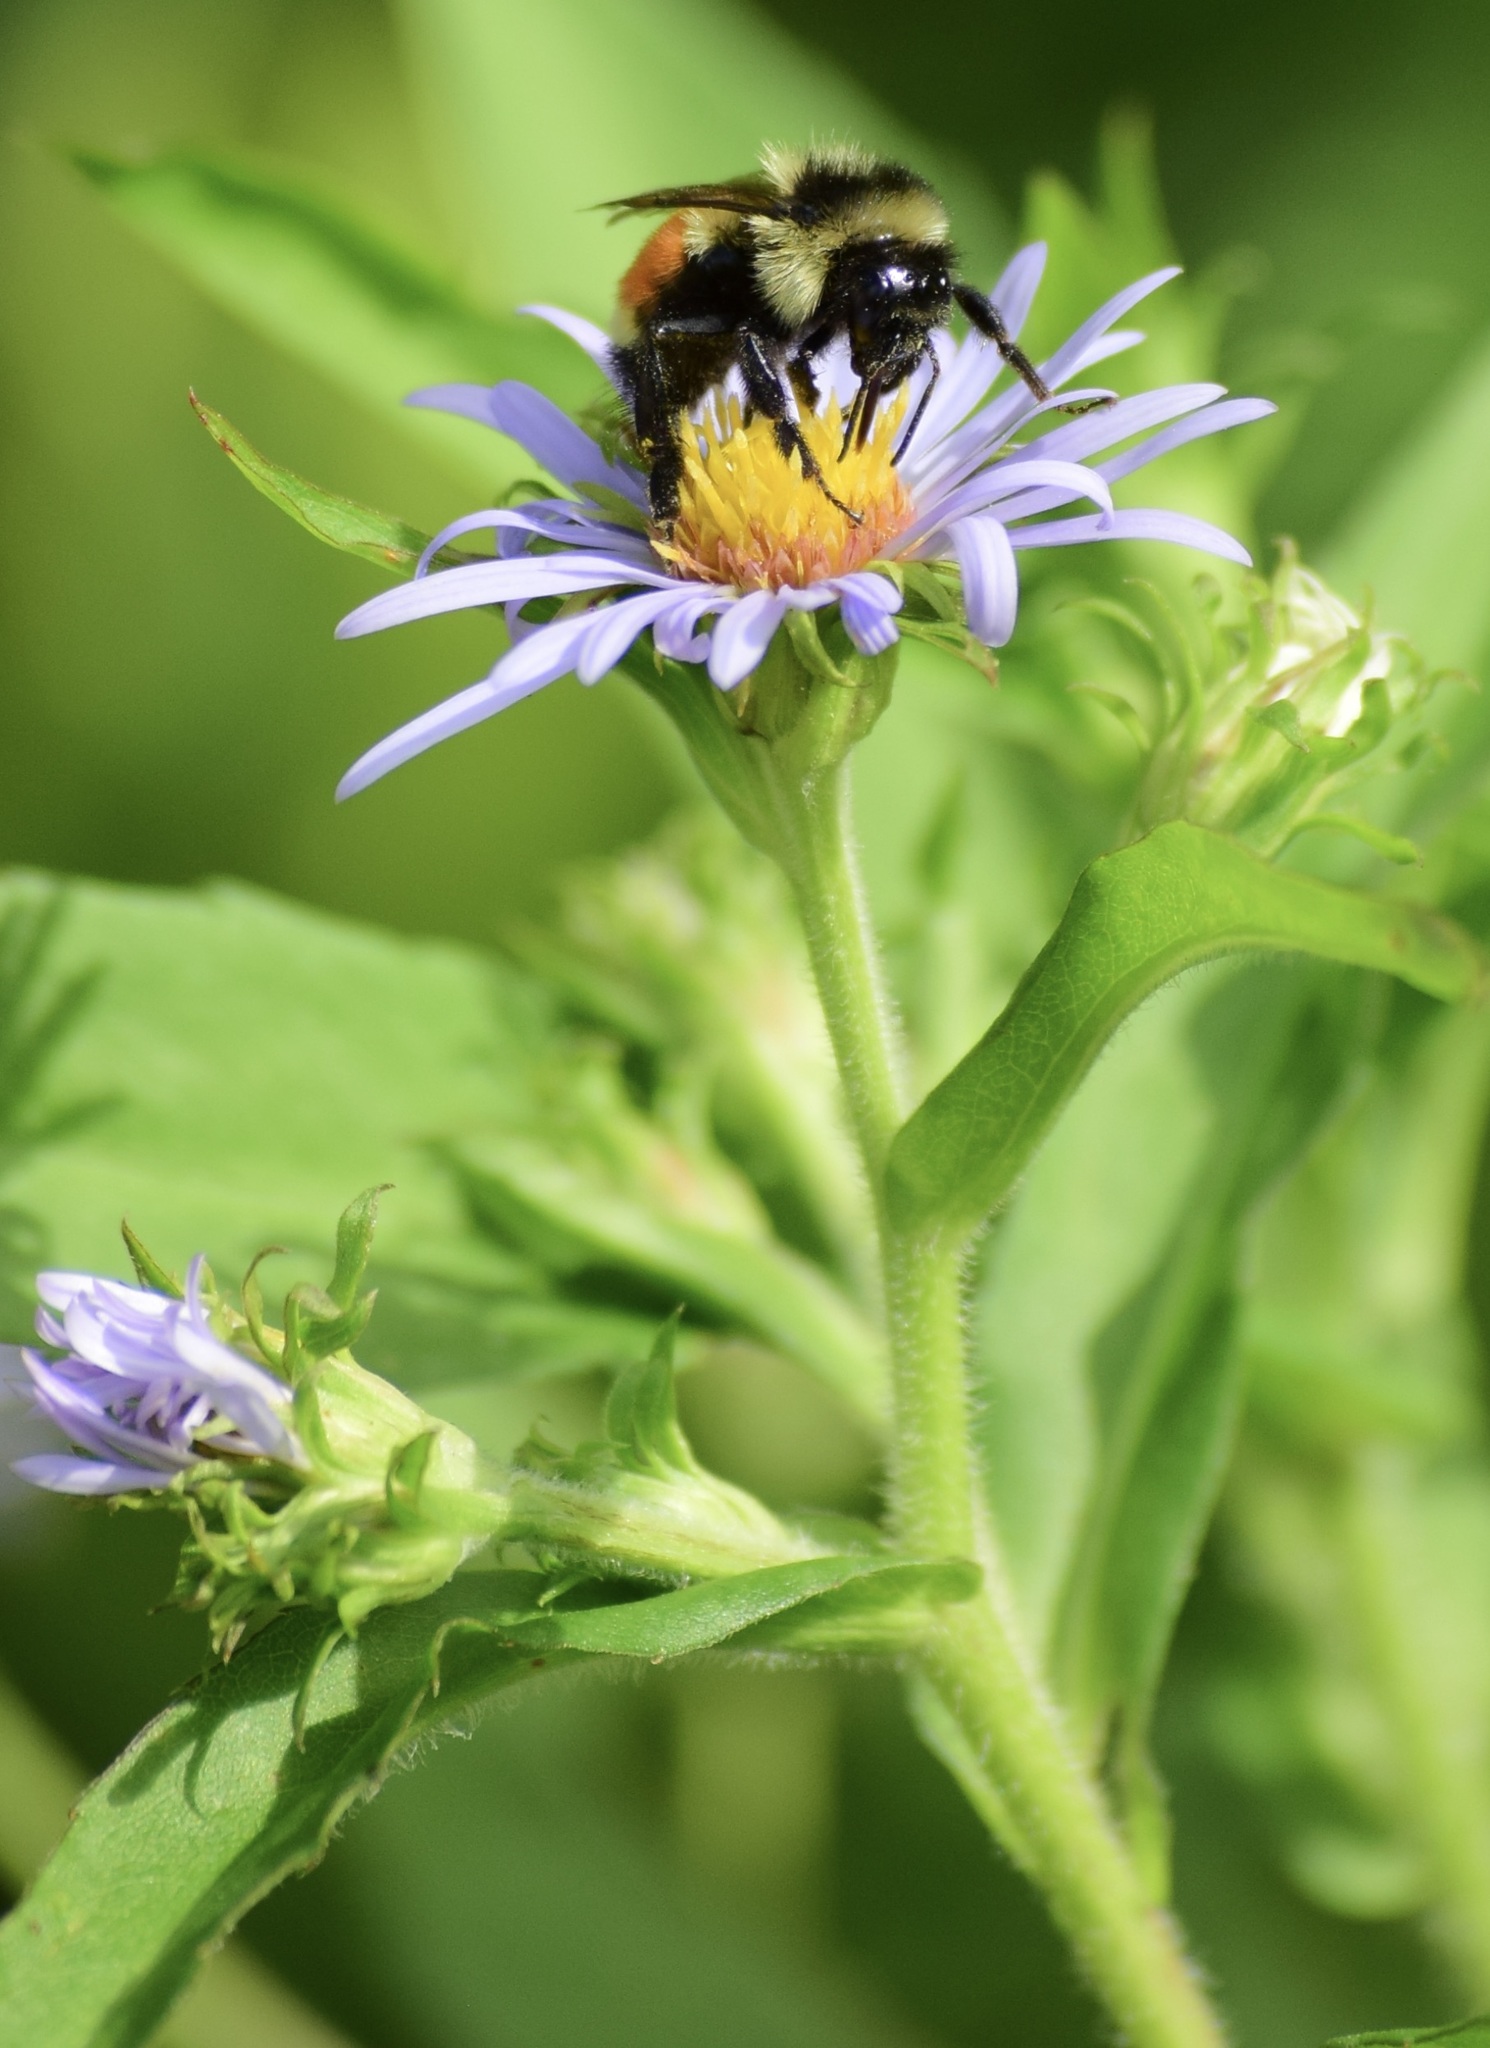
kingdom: Animalia
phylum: Arthropoda
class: Insecta
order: Hymenoptera
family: Apidae
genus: Bombus
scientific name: Bombus ternarius
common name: Tri-colored bumble bee
